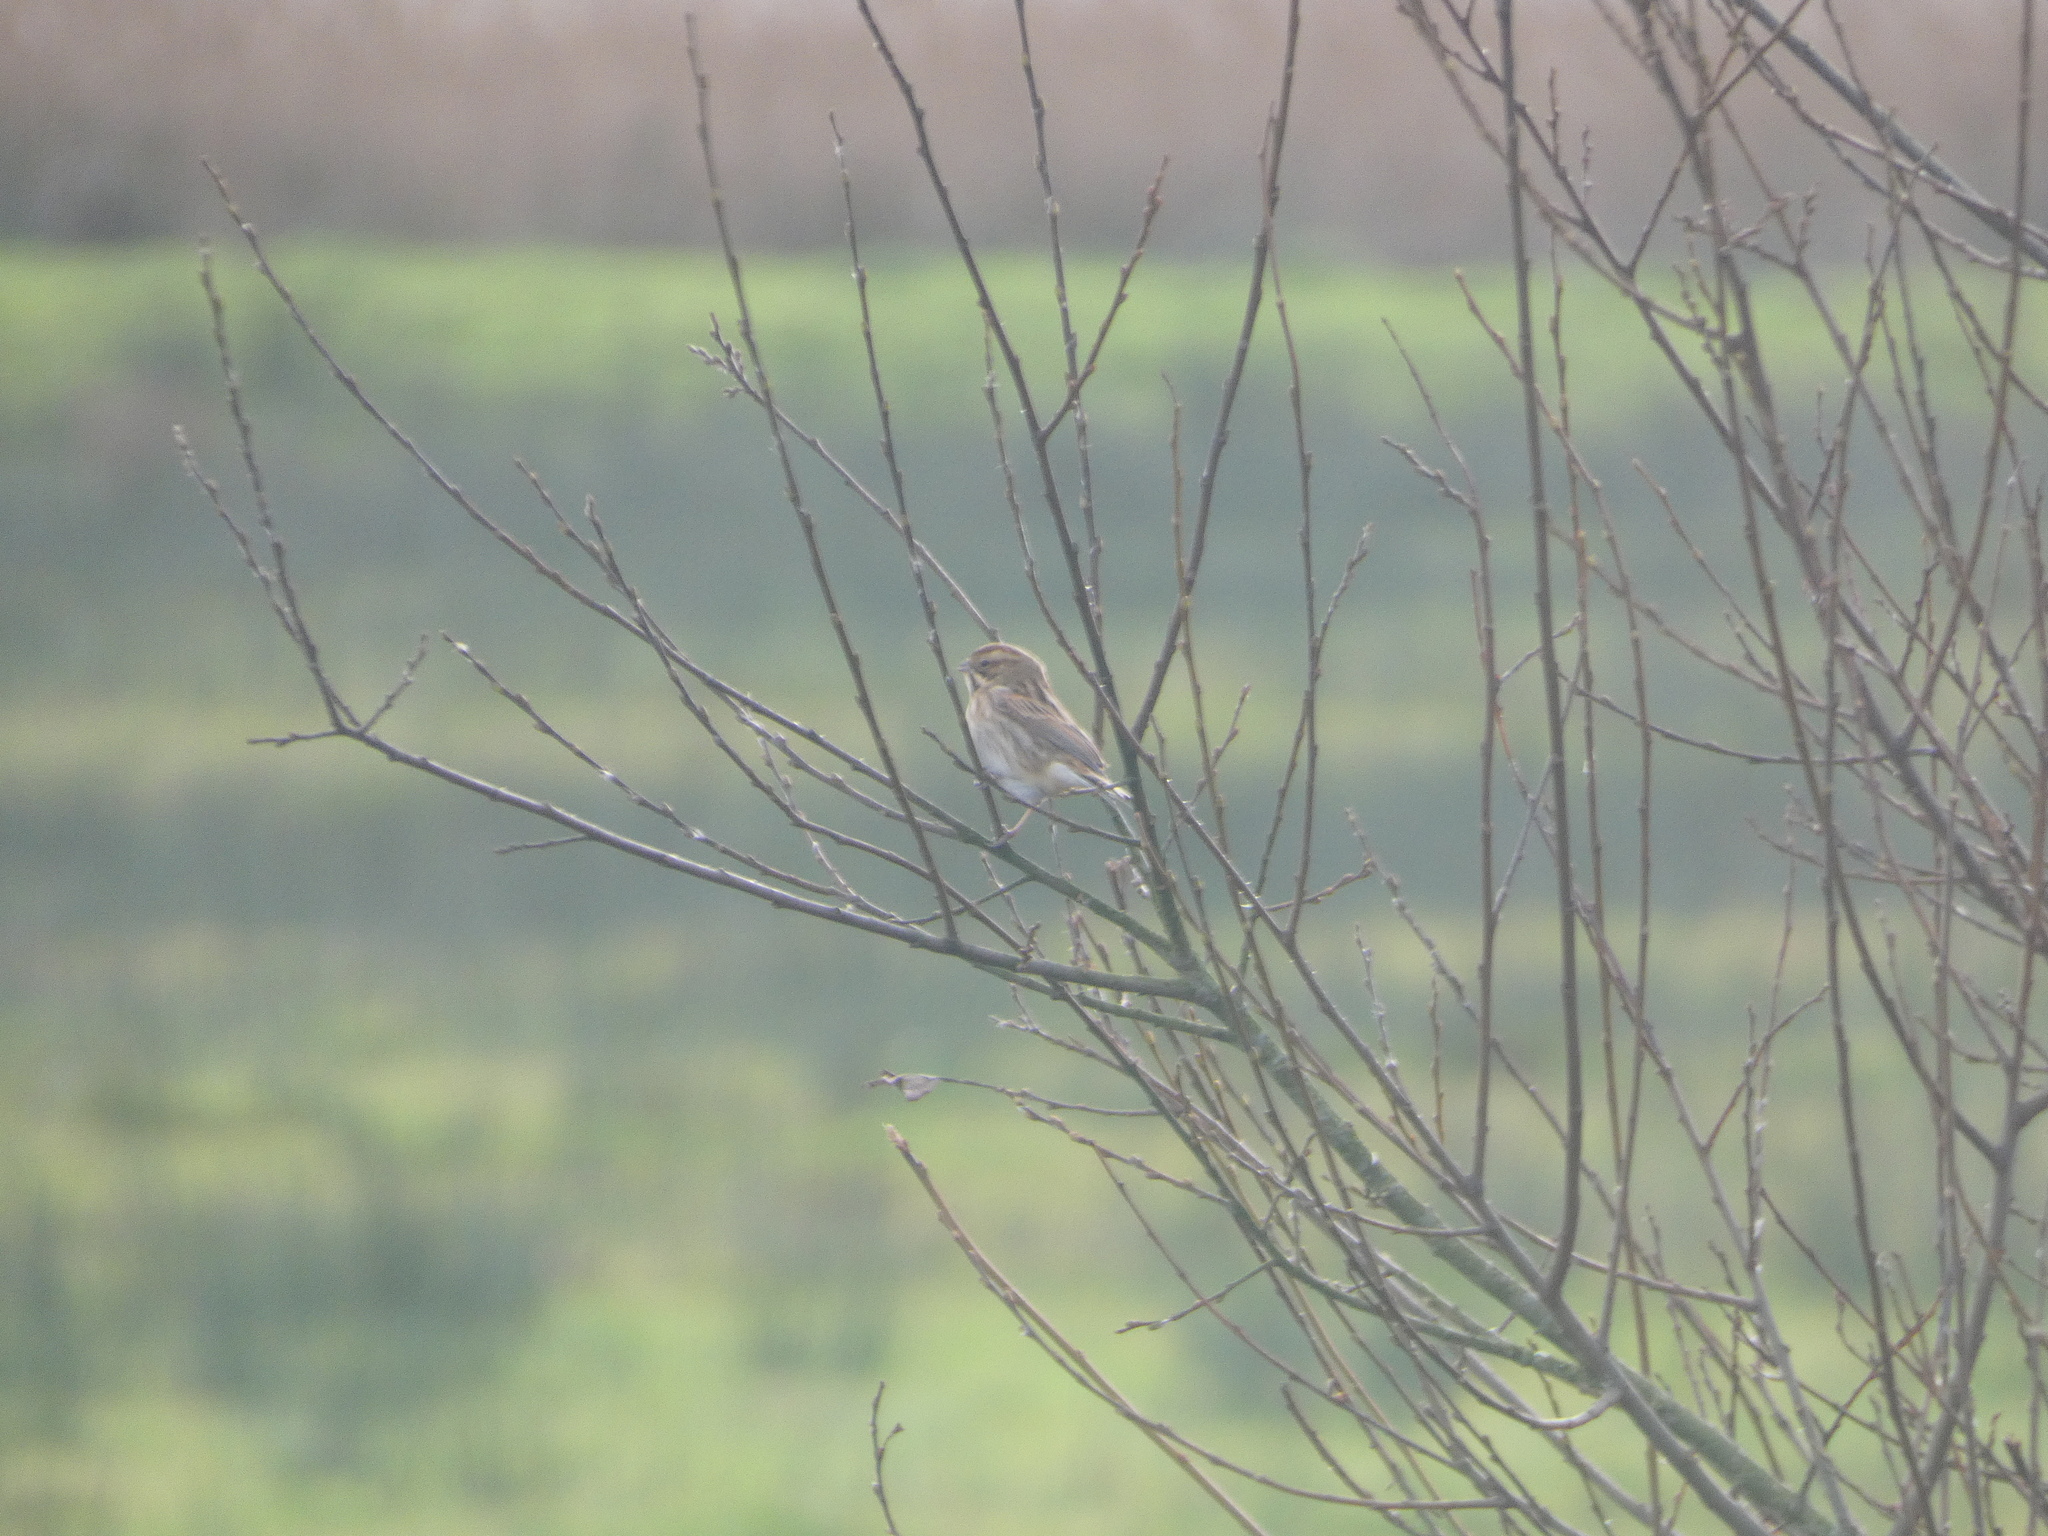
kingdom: Animalia
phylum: Chordata
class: Aves
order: Passeriformes
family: Emberizidae
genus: Emberiza
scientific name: Emberiza schoeniclus
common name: Reed bunting
